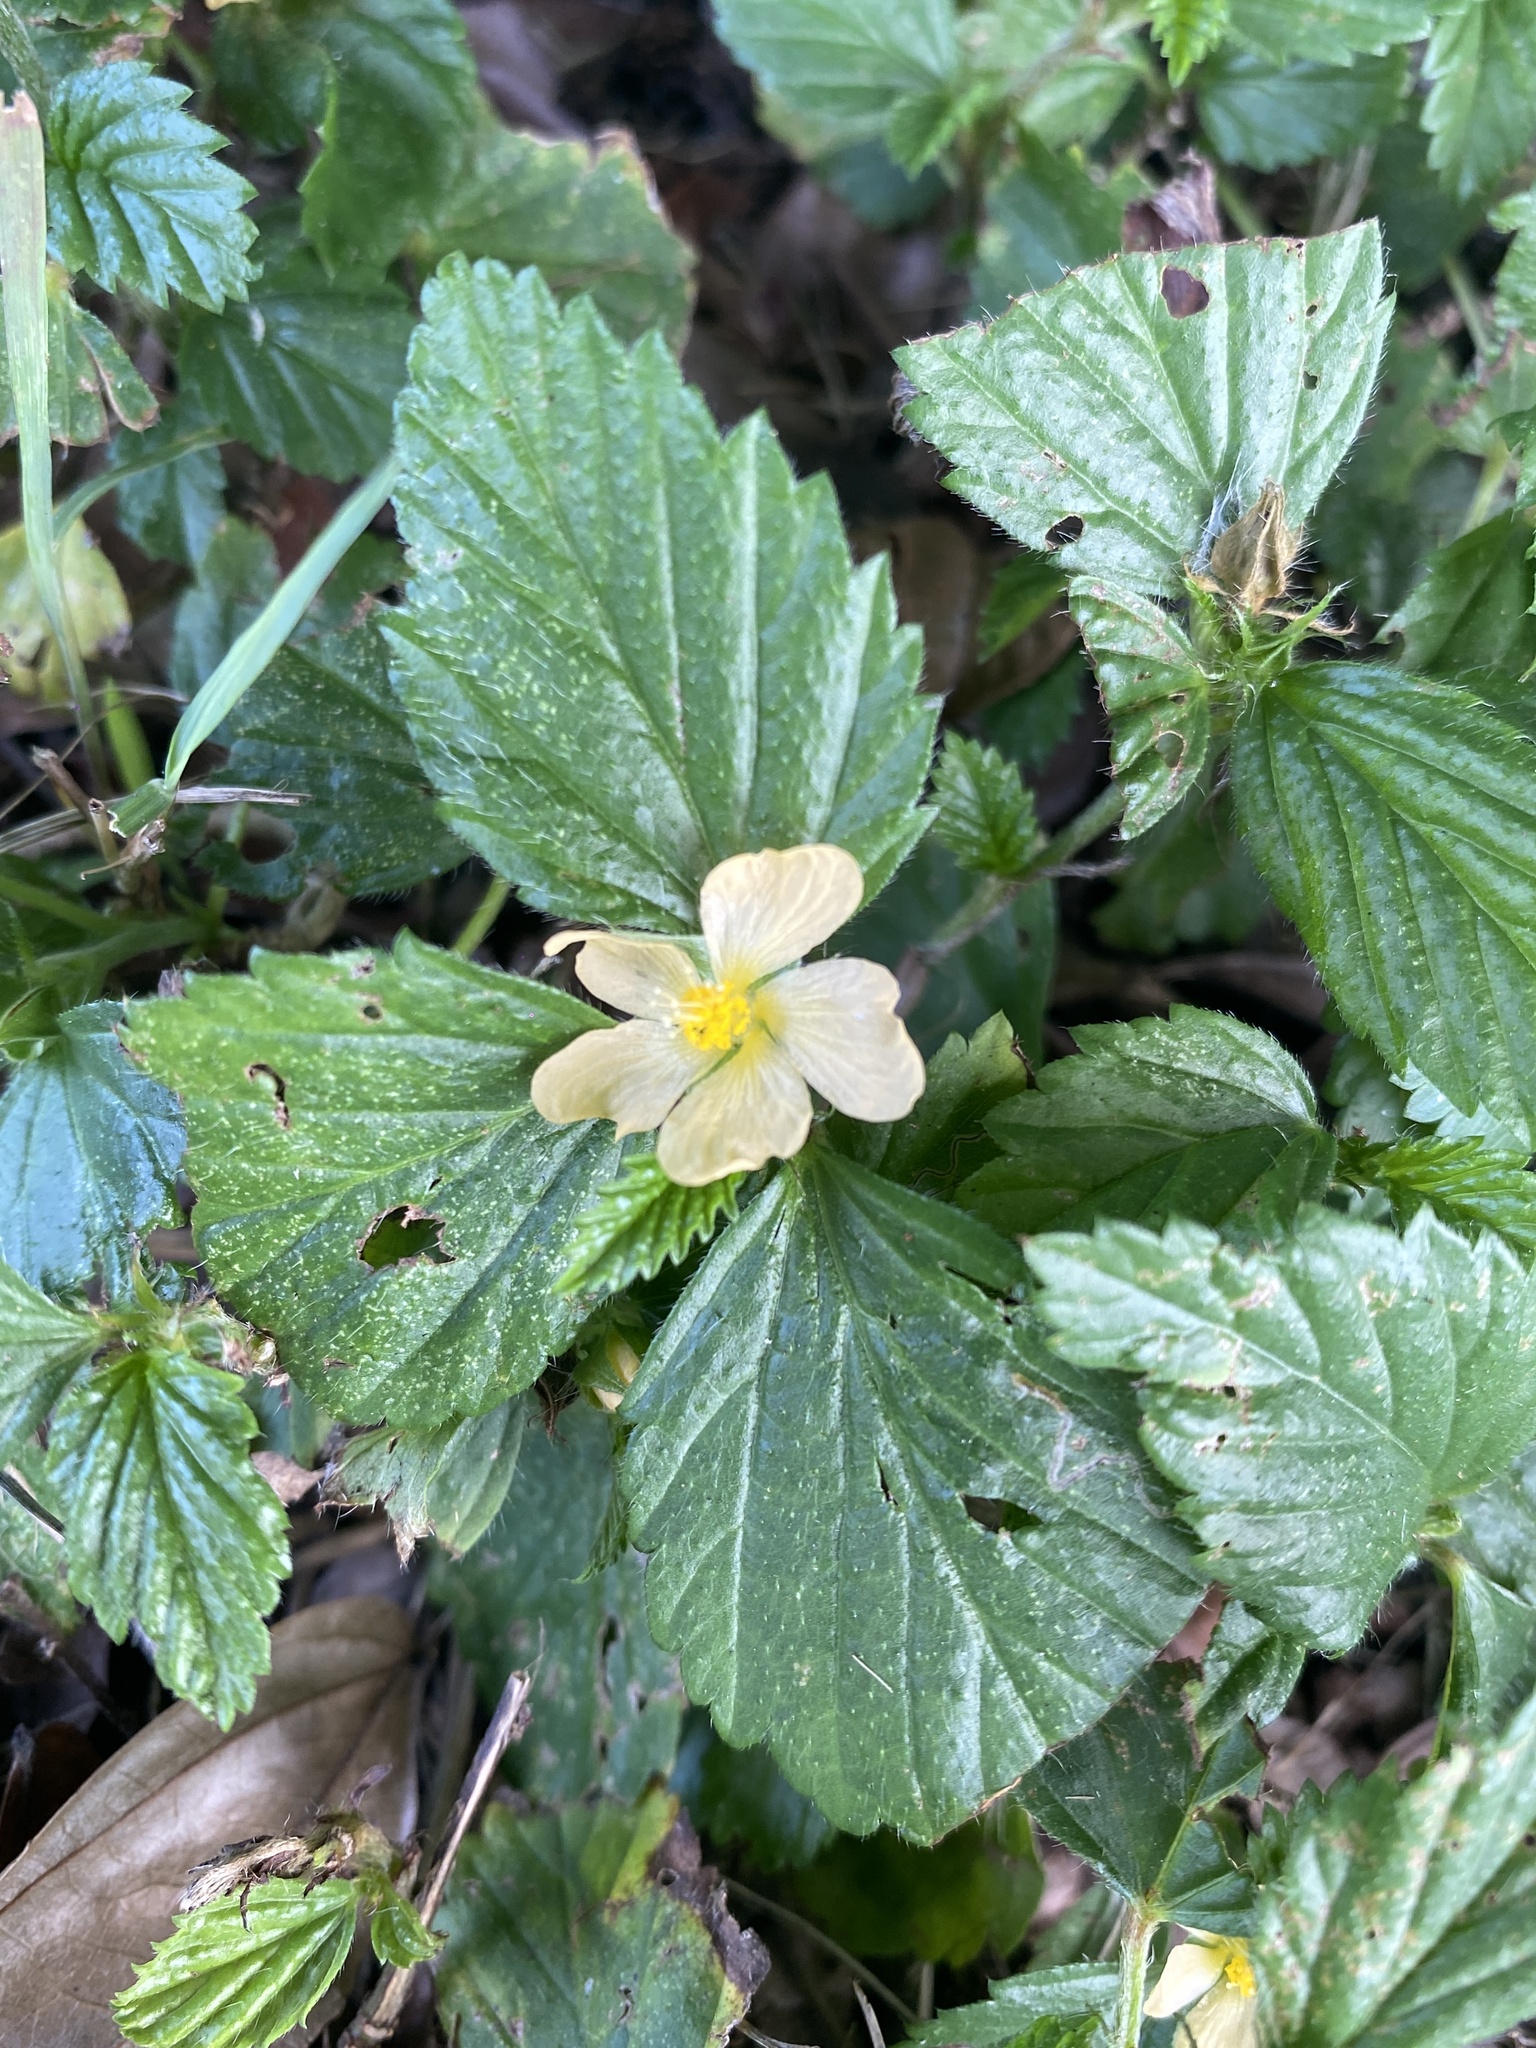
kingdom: Plantae
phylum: Tracheophyta
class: Magnoliopsida
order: Malvales
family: Malvaceae
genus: Malvastrum
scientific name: Malvastrum coromandelianum
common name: Threelobe false mallow
